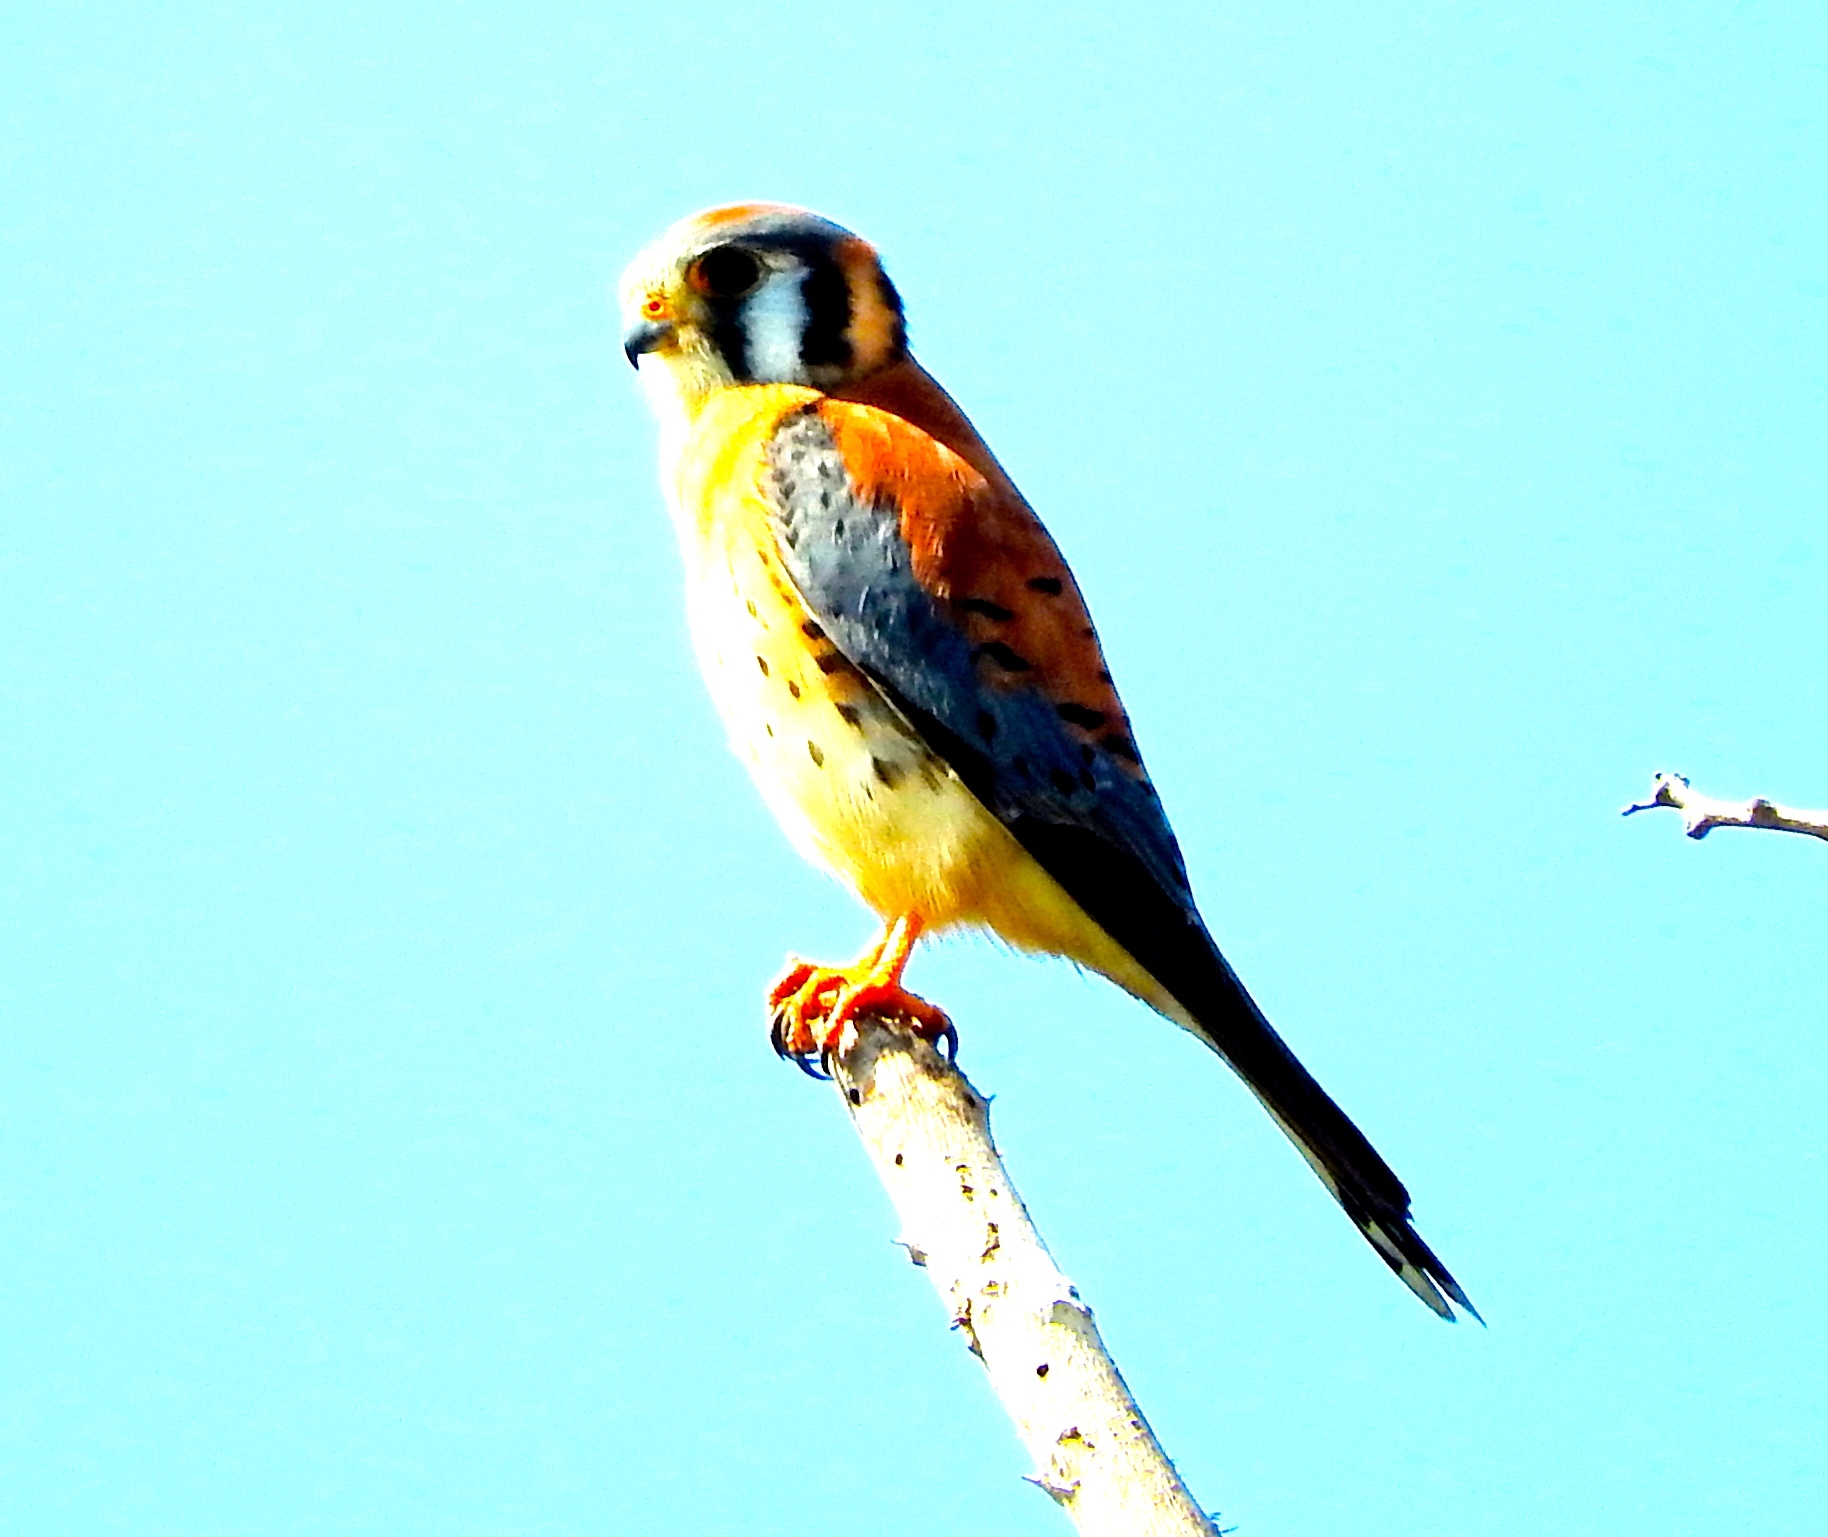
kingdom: Animalia
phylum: Chordata
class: Aves
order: Falconiformes
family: Falconidae
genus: Falco
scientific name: Falco sparverius
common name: American kestrel
